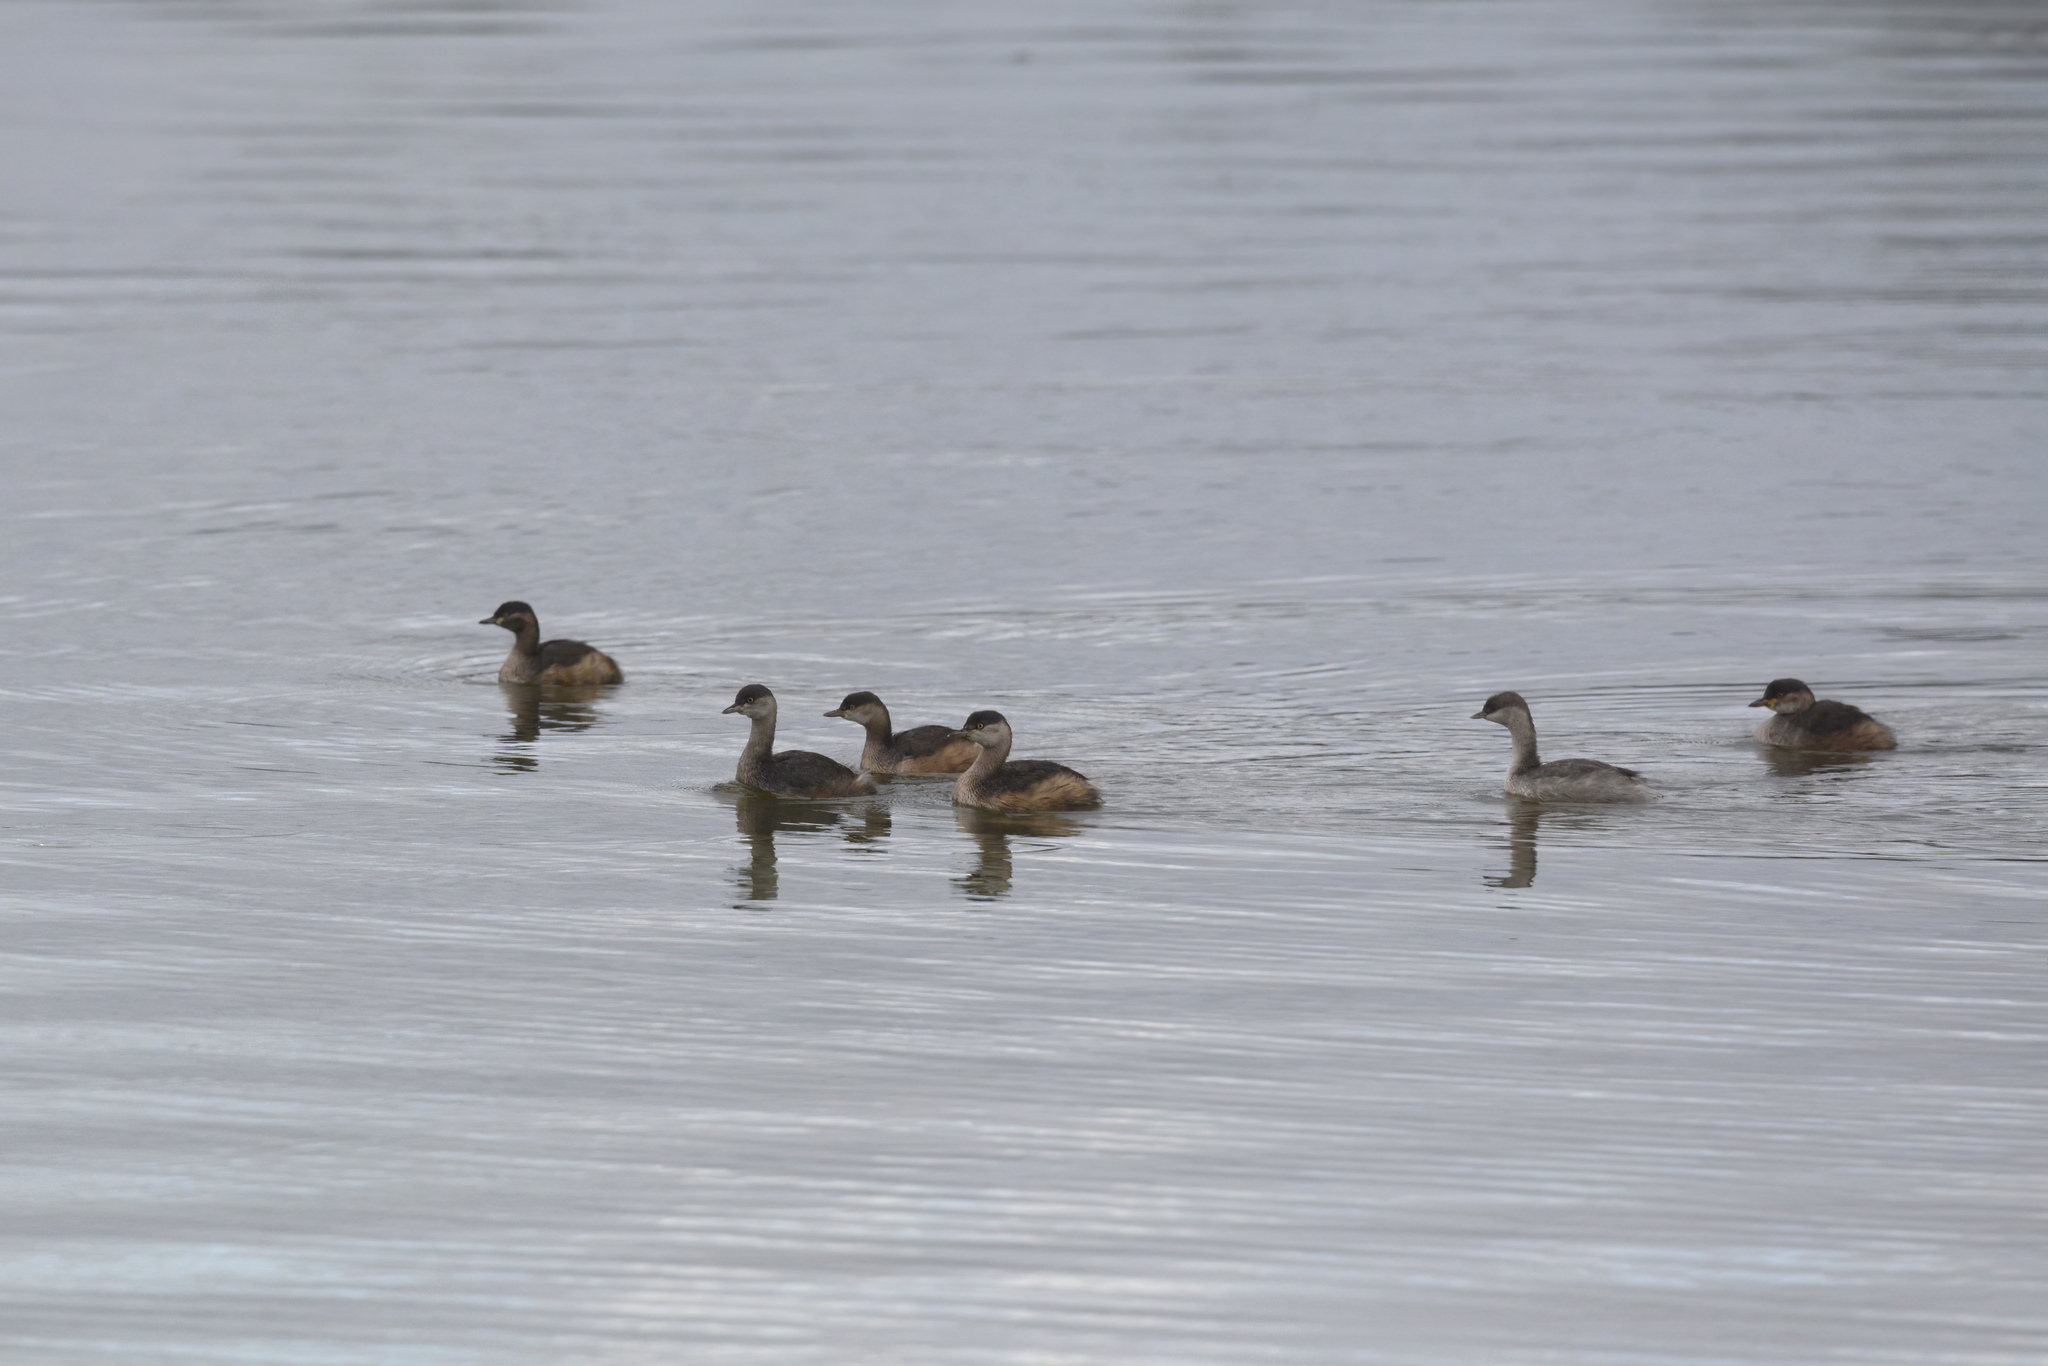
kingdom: Animalia
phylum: Chordata
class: Aves
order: Podicipediformes
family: Podicipedidae
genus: Tachybaptus
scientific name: Tachybaptus novaehollandiae
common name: Australasian grebe
